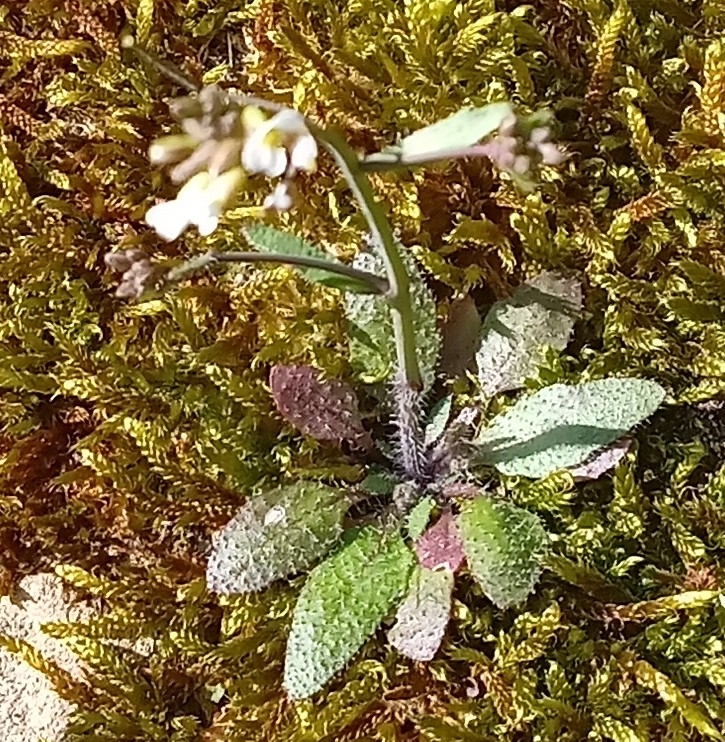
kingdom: Plantae
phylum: Tracheophyta
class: Magnoliopsida
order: Brassicales
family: Brassicaceae
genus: Draba
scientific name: Draba verna
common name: Spring draba
